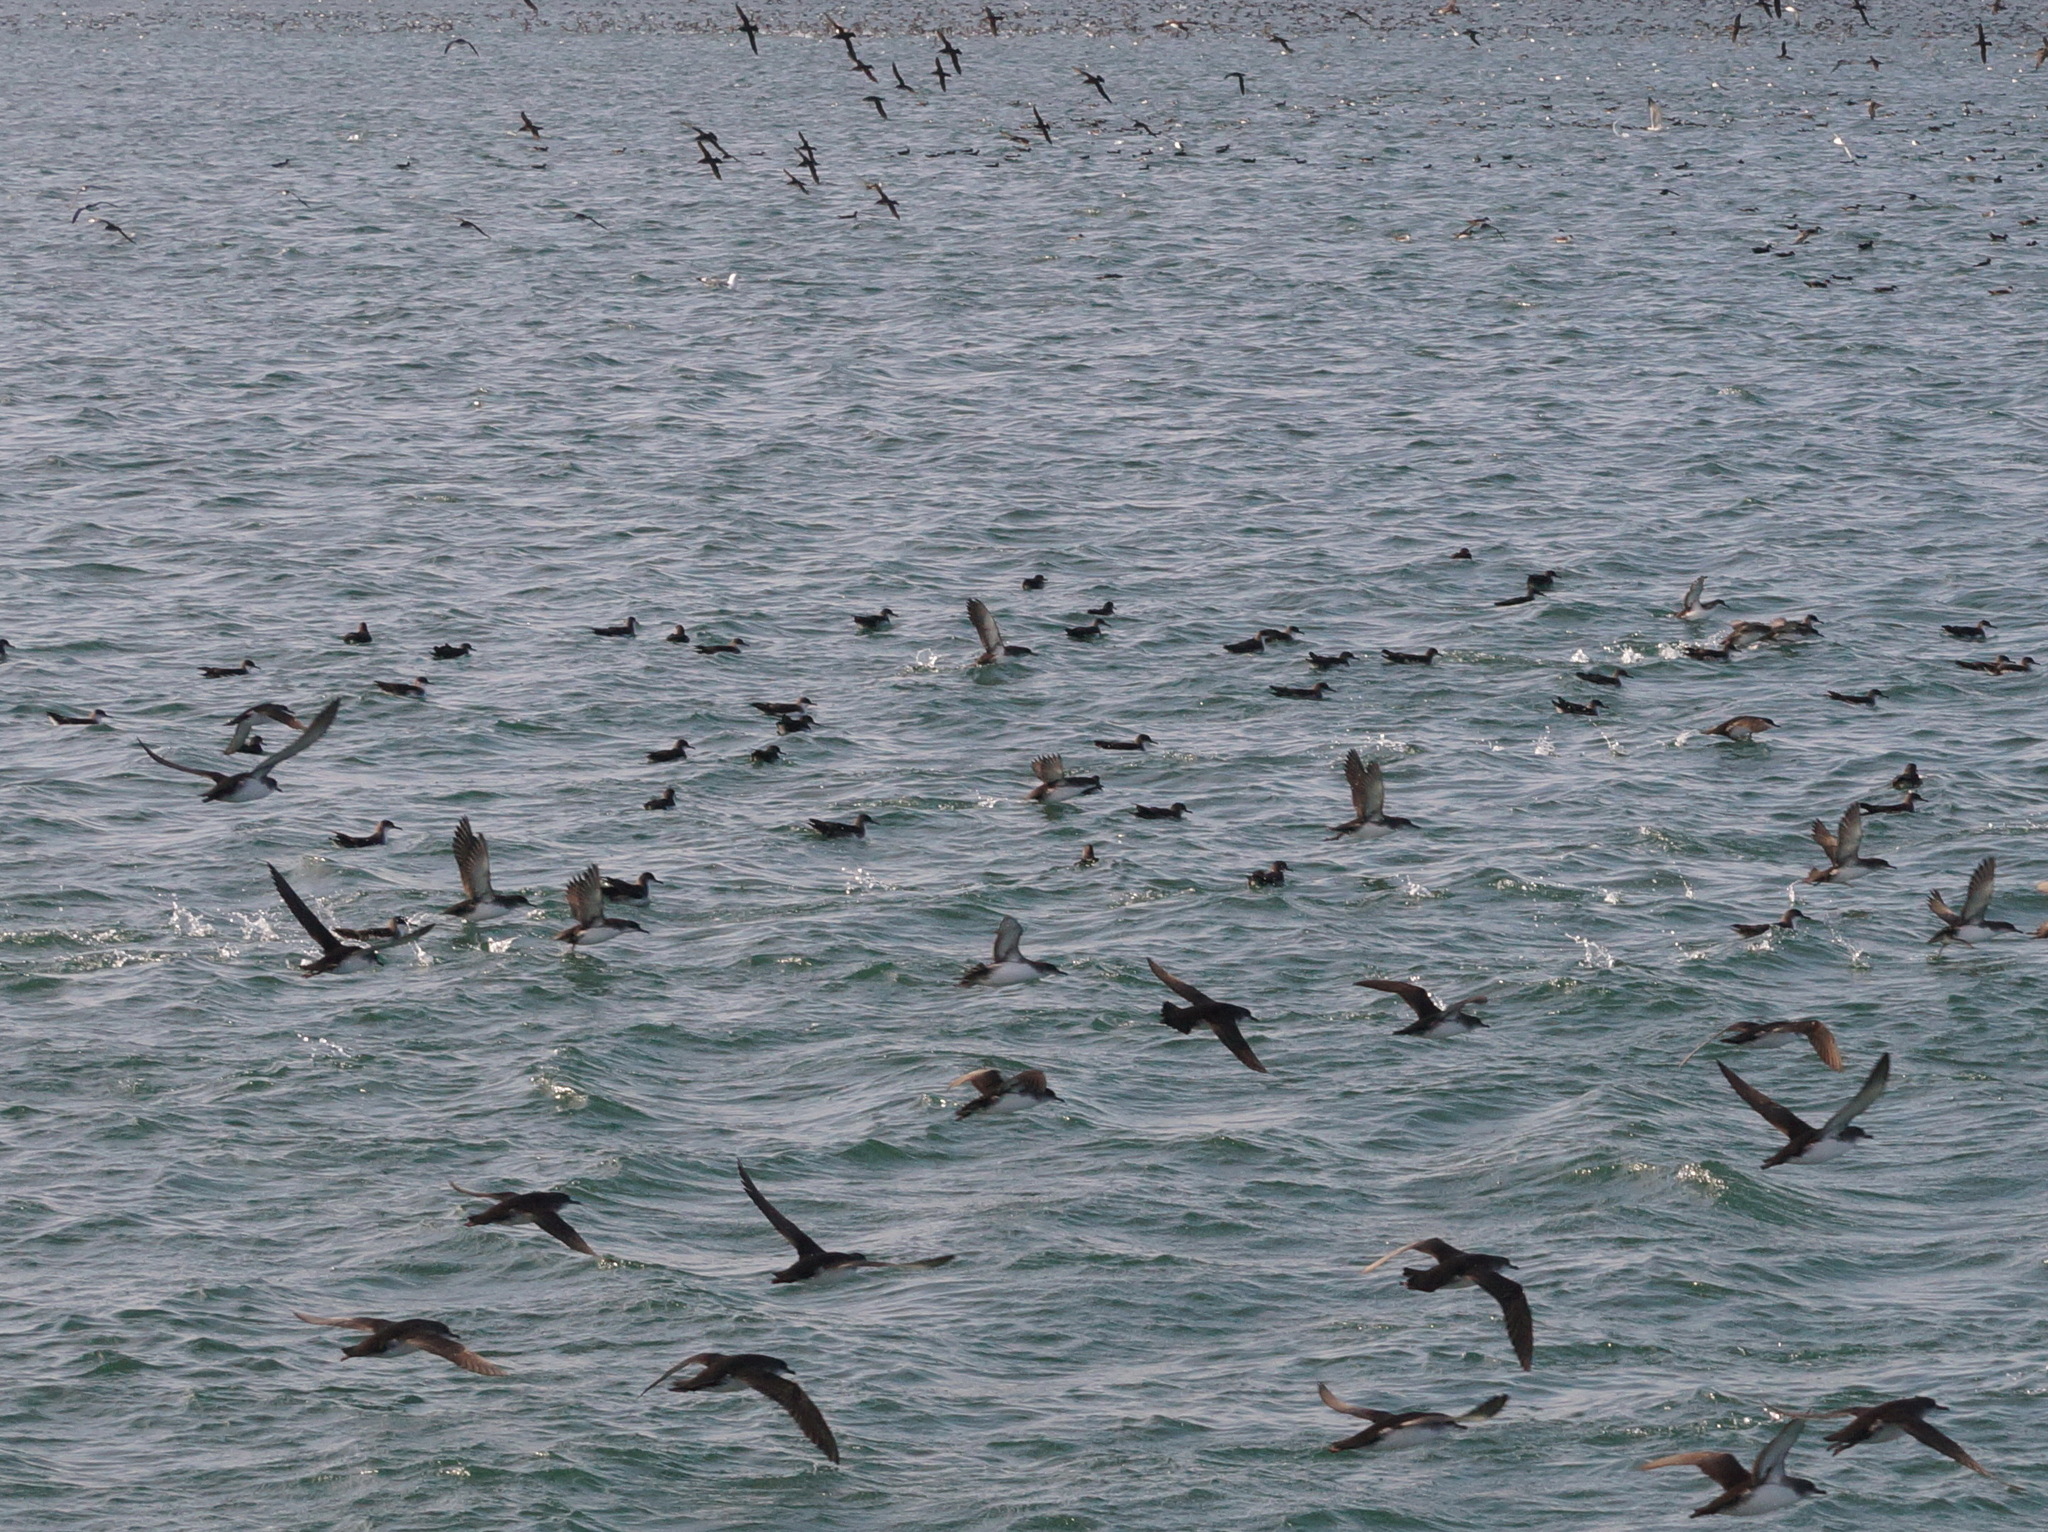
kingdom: Animalia
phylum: Chordata
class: Aves
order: Procellariiformes
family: Procellariidae
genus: Puffinus
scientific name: Puffinus yelkouan
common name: Yelkouan shearwater
